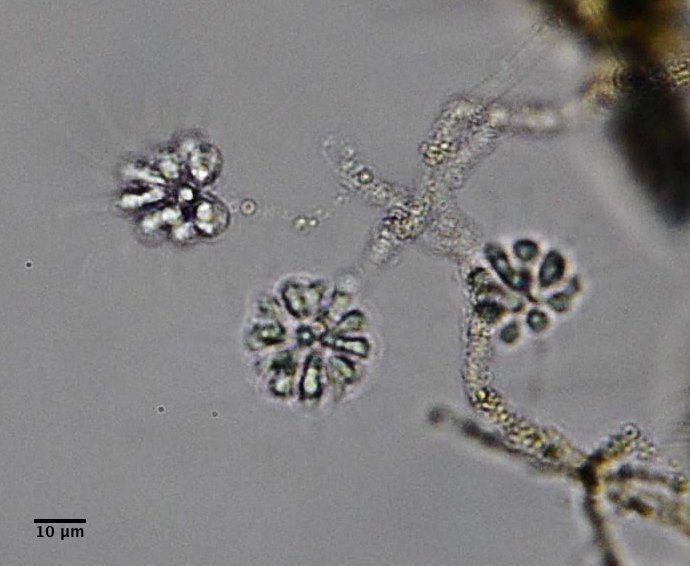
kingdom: Chromista
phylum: Ochrophyta
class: Chrysophyceae
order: Chromulinales
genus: Anthophysa
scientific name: Anthophysa vegetans
